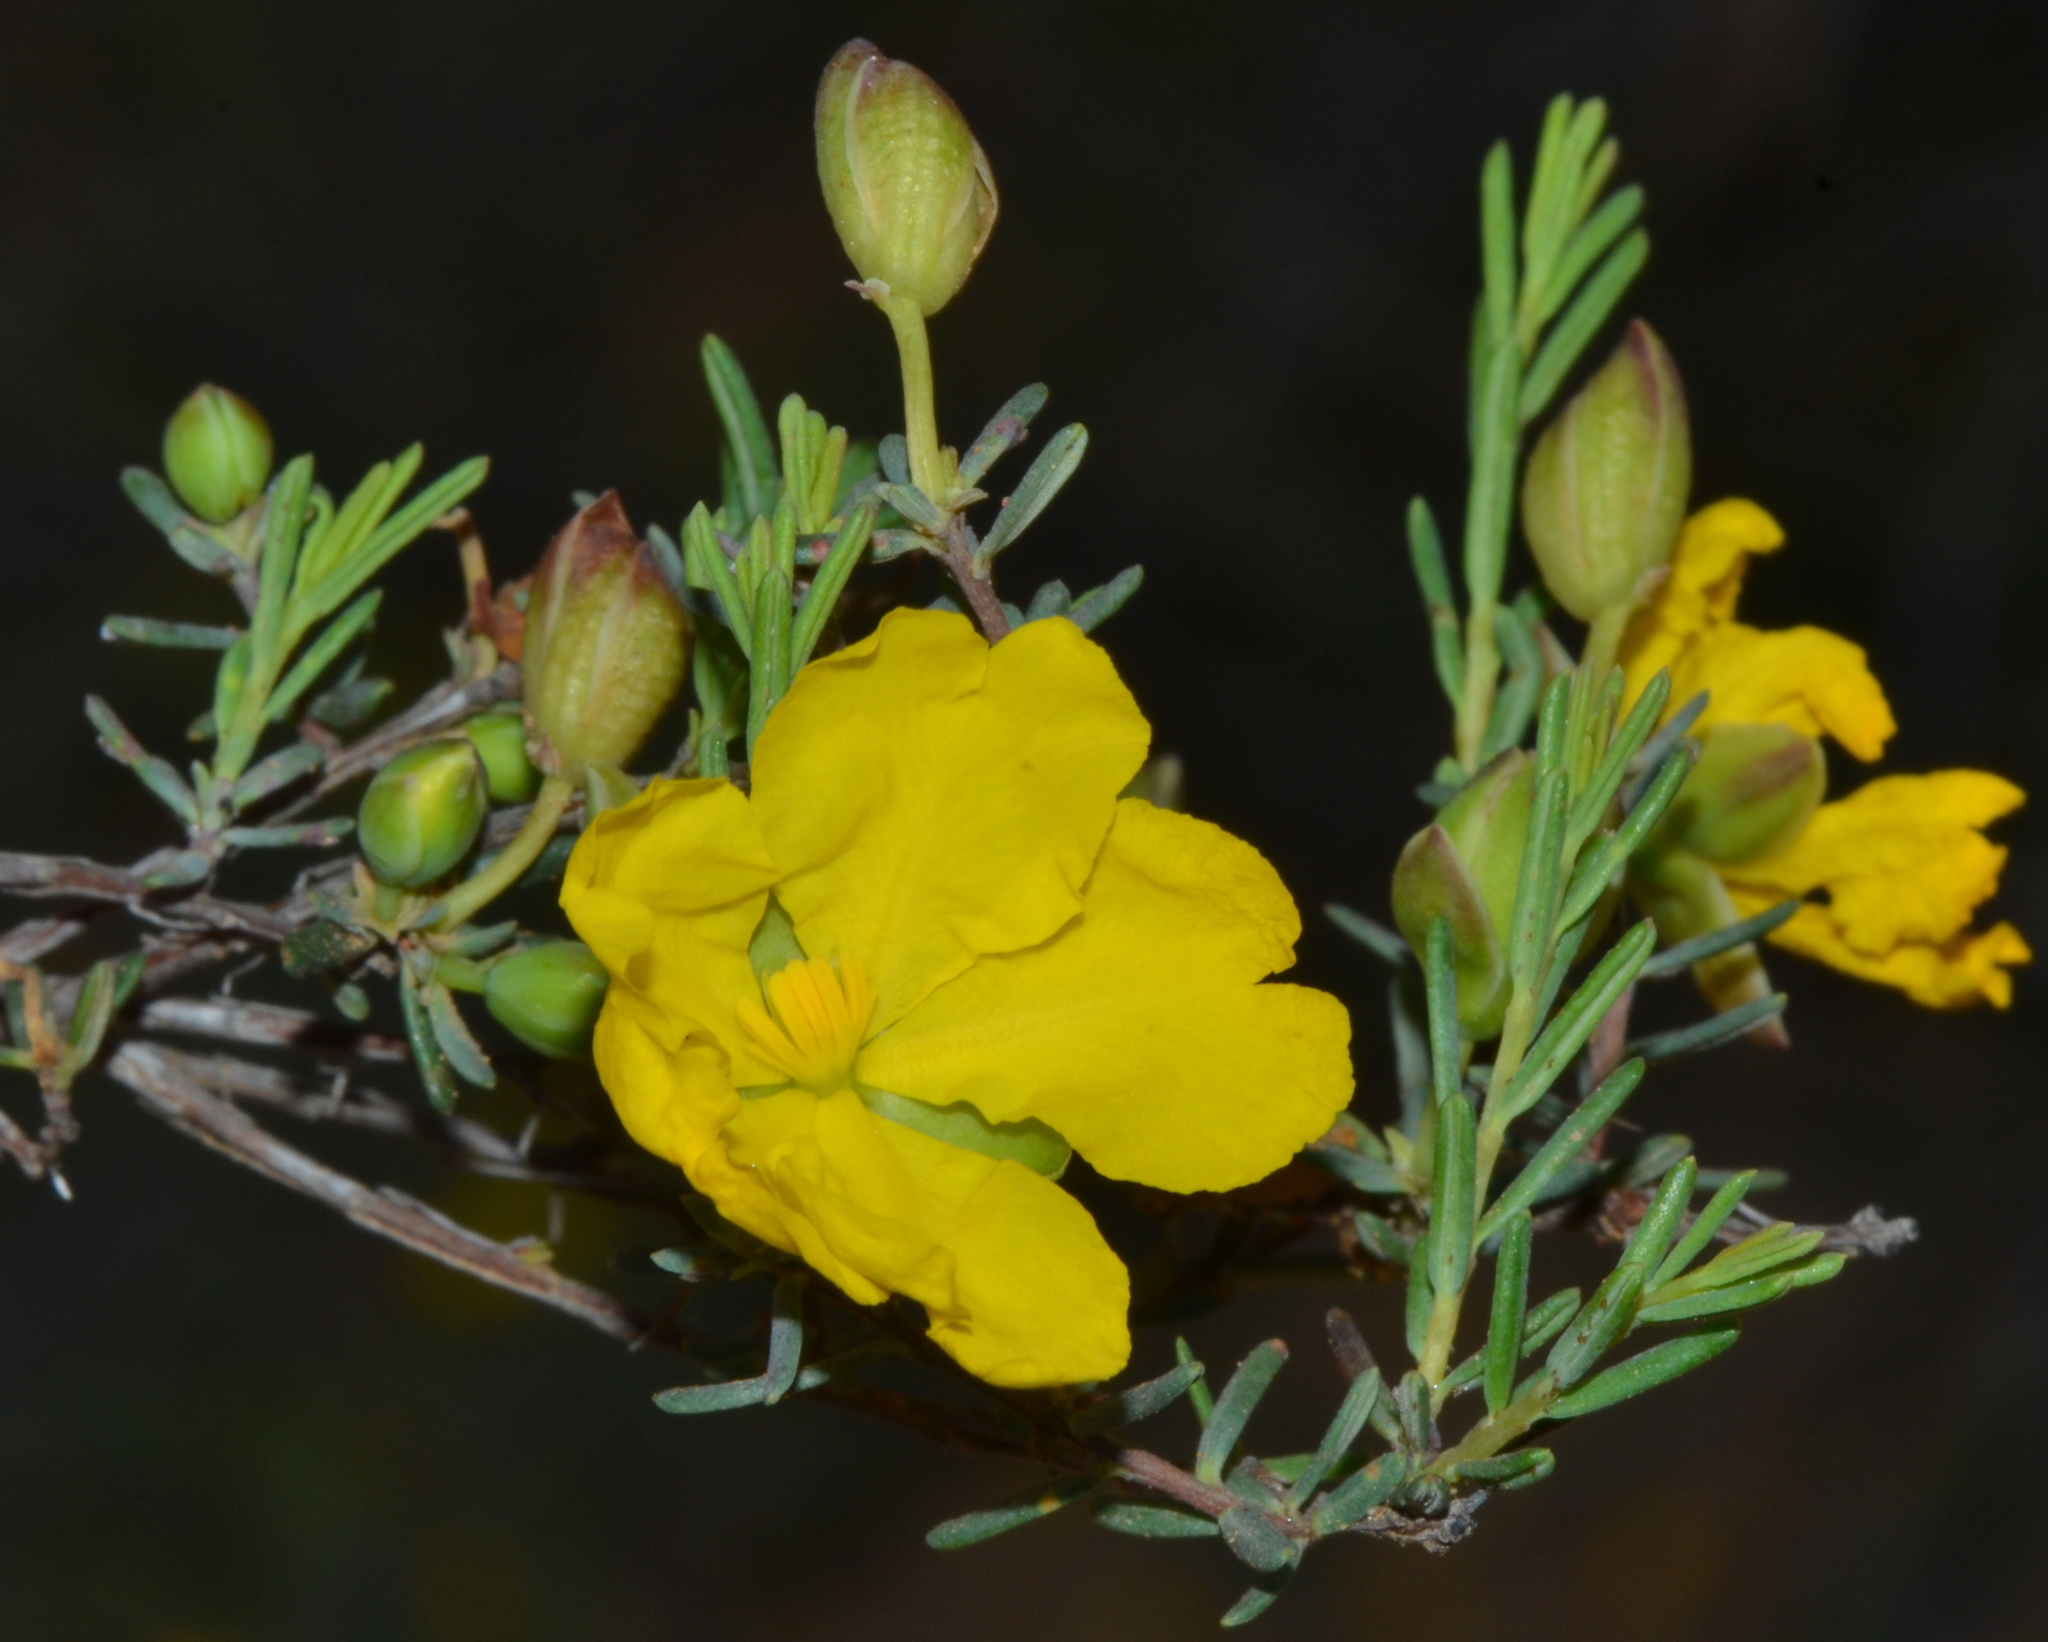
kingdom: Plantae
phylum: Tracheophyta
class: Magnoliopsida
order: Dilleniales
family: Dilleniaceae
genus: Hibbertia
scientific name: Hibbertia stenophylla
